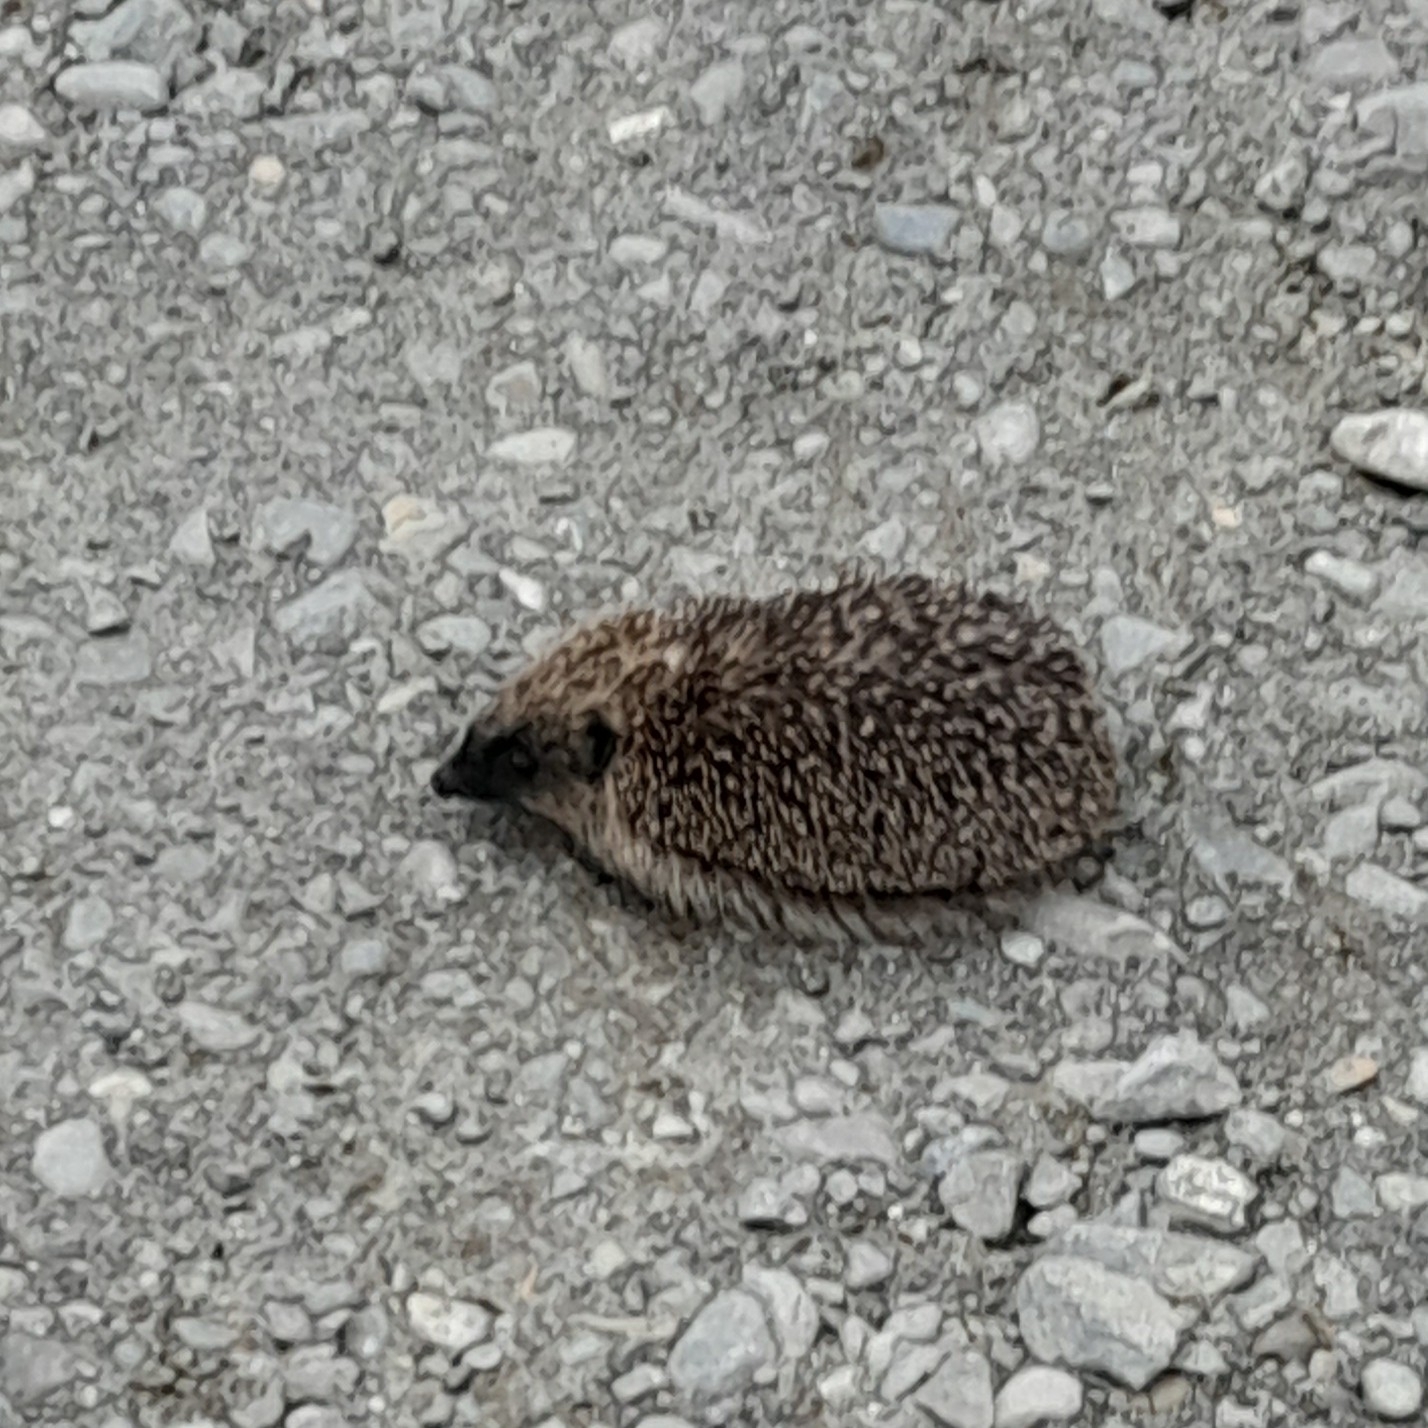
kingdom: Animalia
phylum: Chordata
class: Mammalia
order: Erinaceomorpha
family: Erinaceidae
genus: Erinaceus
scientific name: Erinaceus europaeus
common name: West european hedgehog
